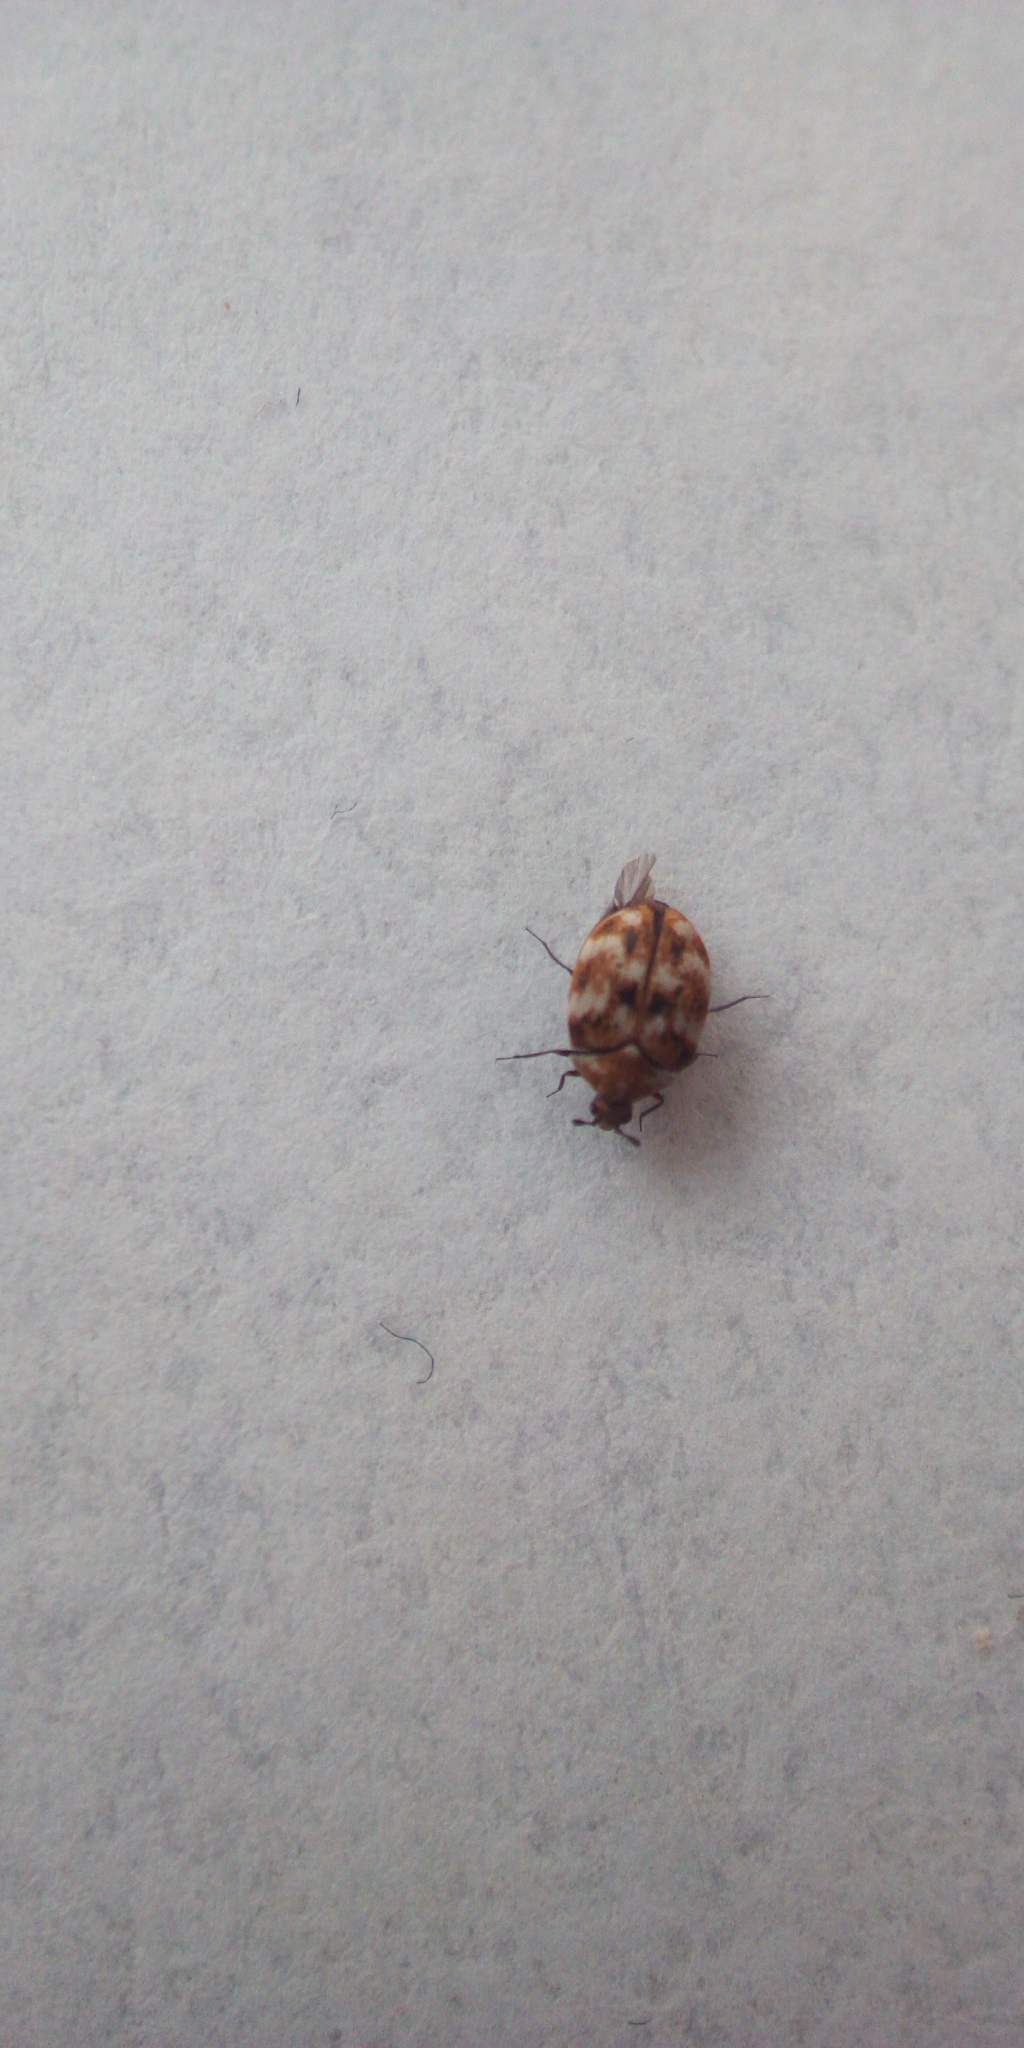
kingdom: Animalia
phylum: Arthropoda
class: Insecta
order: Coleoptera
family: Dermestidae
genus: Anthrenus
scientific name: Anthrenus verbasci
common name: Varied carpet beetle
